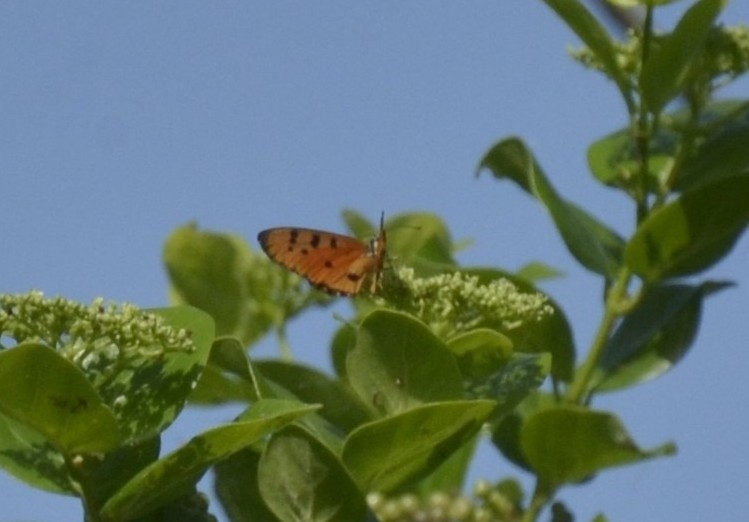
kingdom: Animalia
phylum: Arthropoda
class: Insecta
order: Lepidoptera
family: Nymphalidae
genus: Acraea
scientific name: Acraea terpsicore
